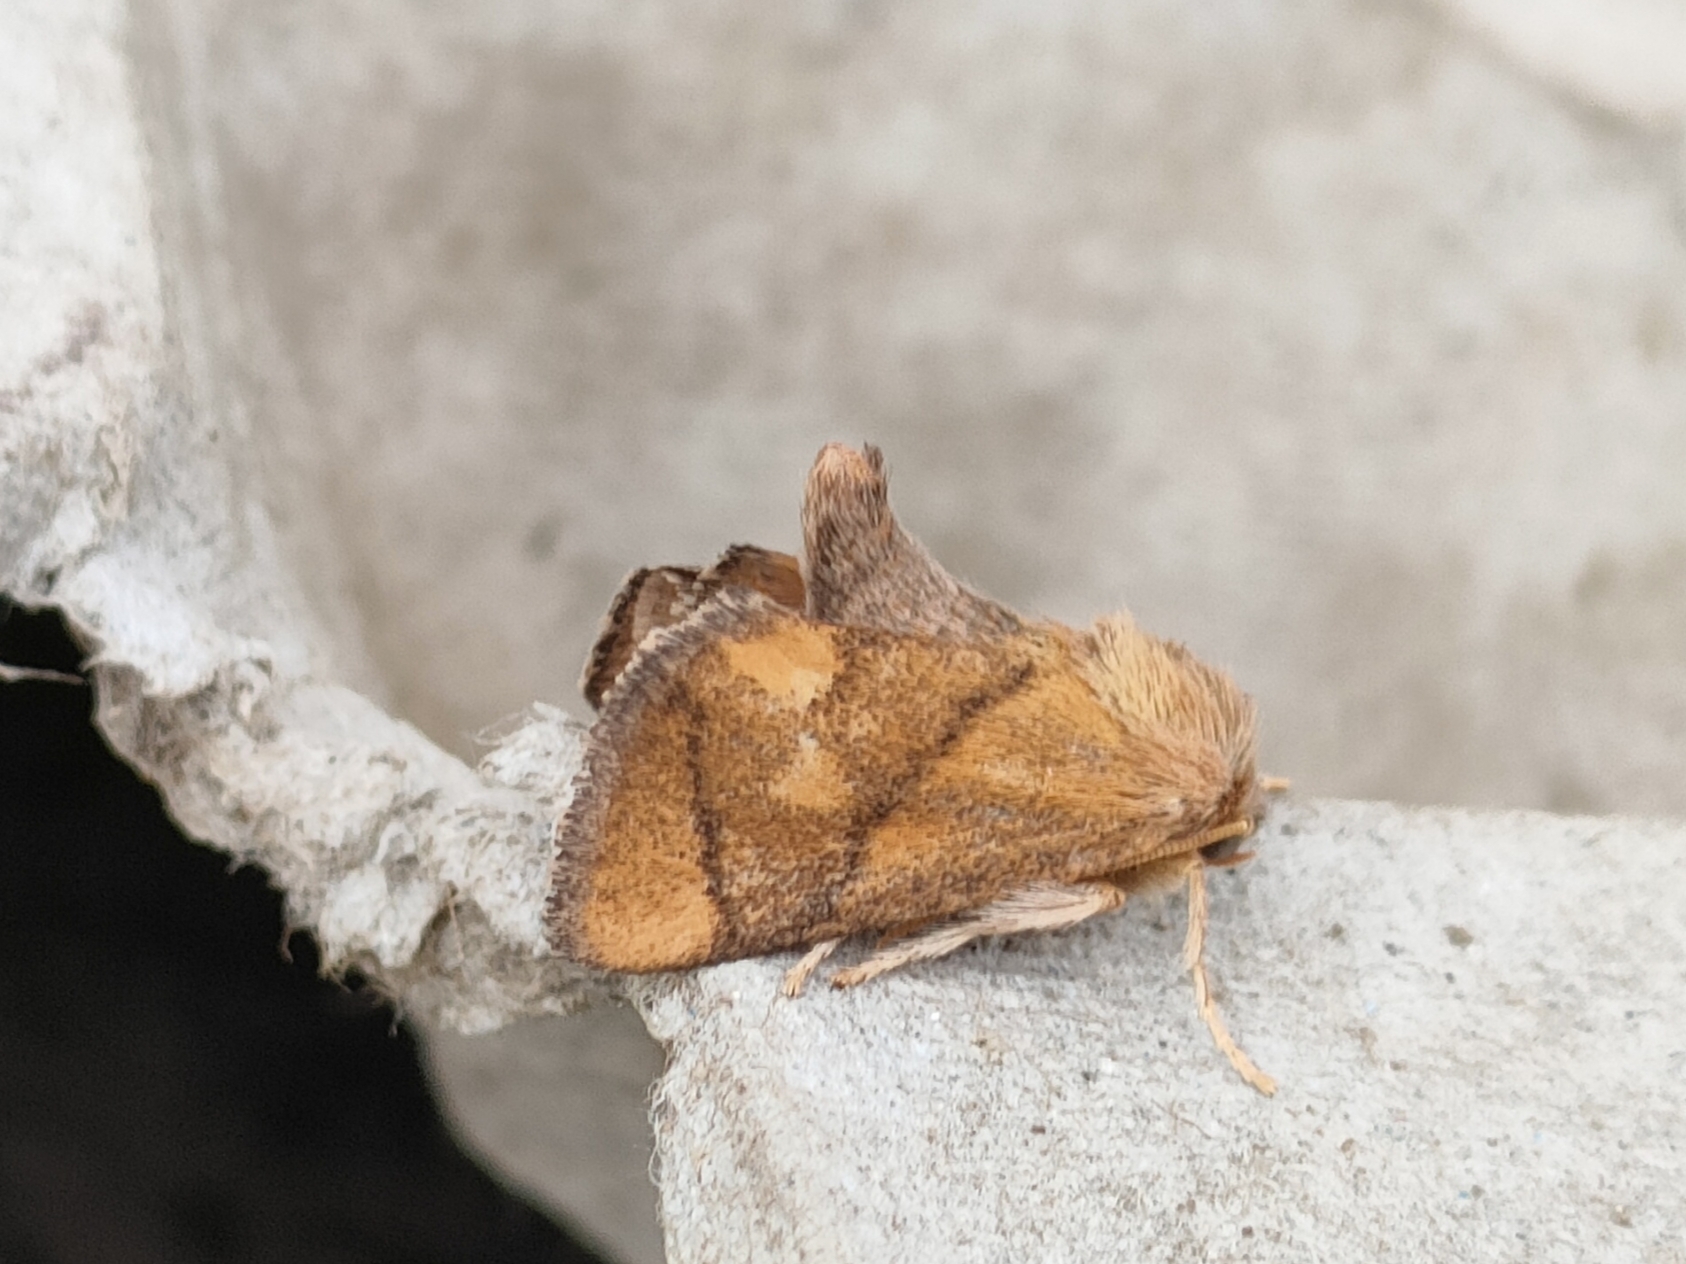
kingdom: Animalia
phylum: Arthropoda
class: Insecta
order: Lepidoptera
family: Limacodidae
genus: Apoda
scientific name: Apoda limacodes
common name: Festoon
